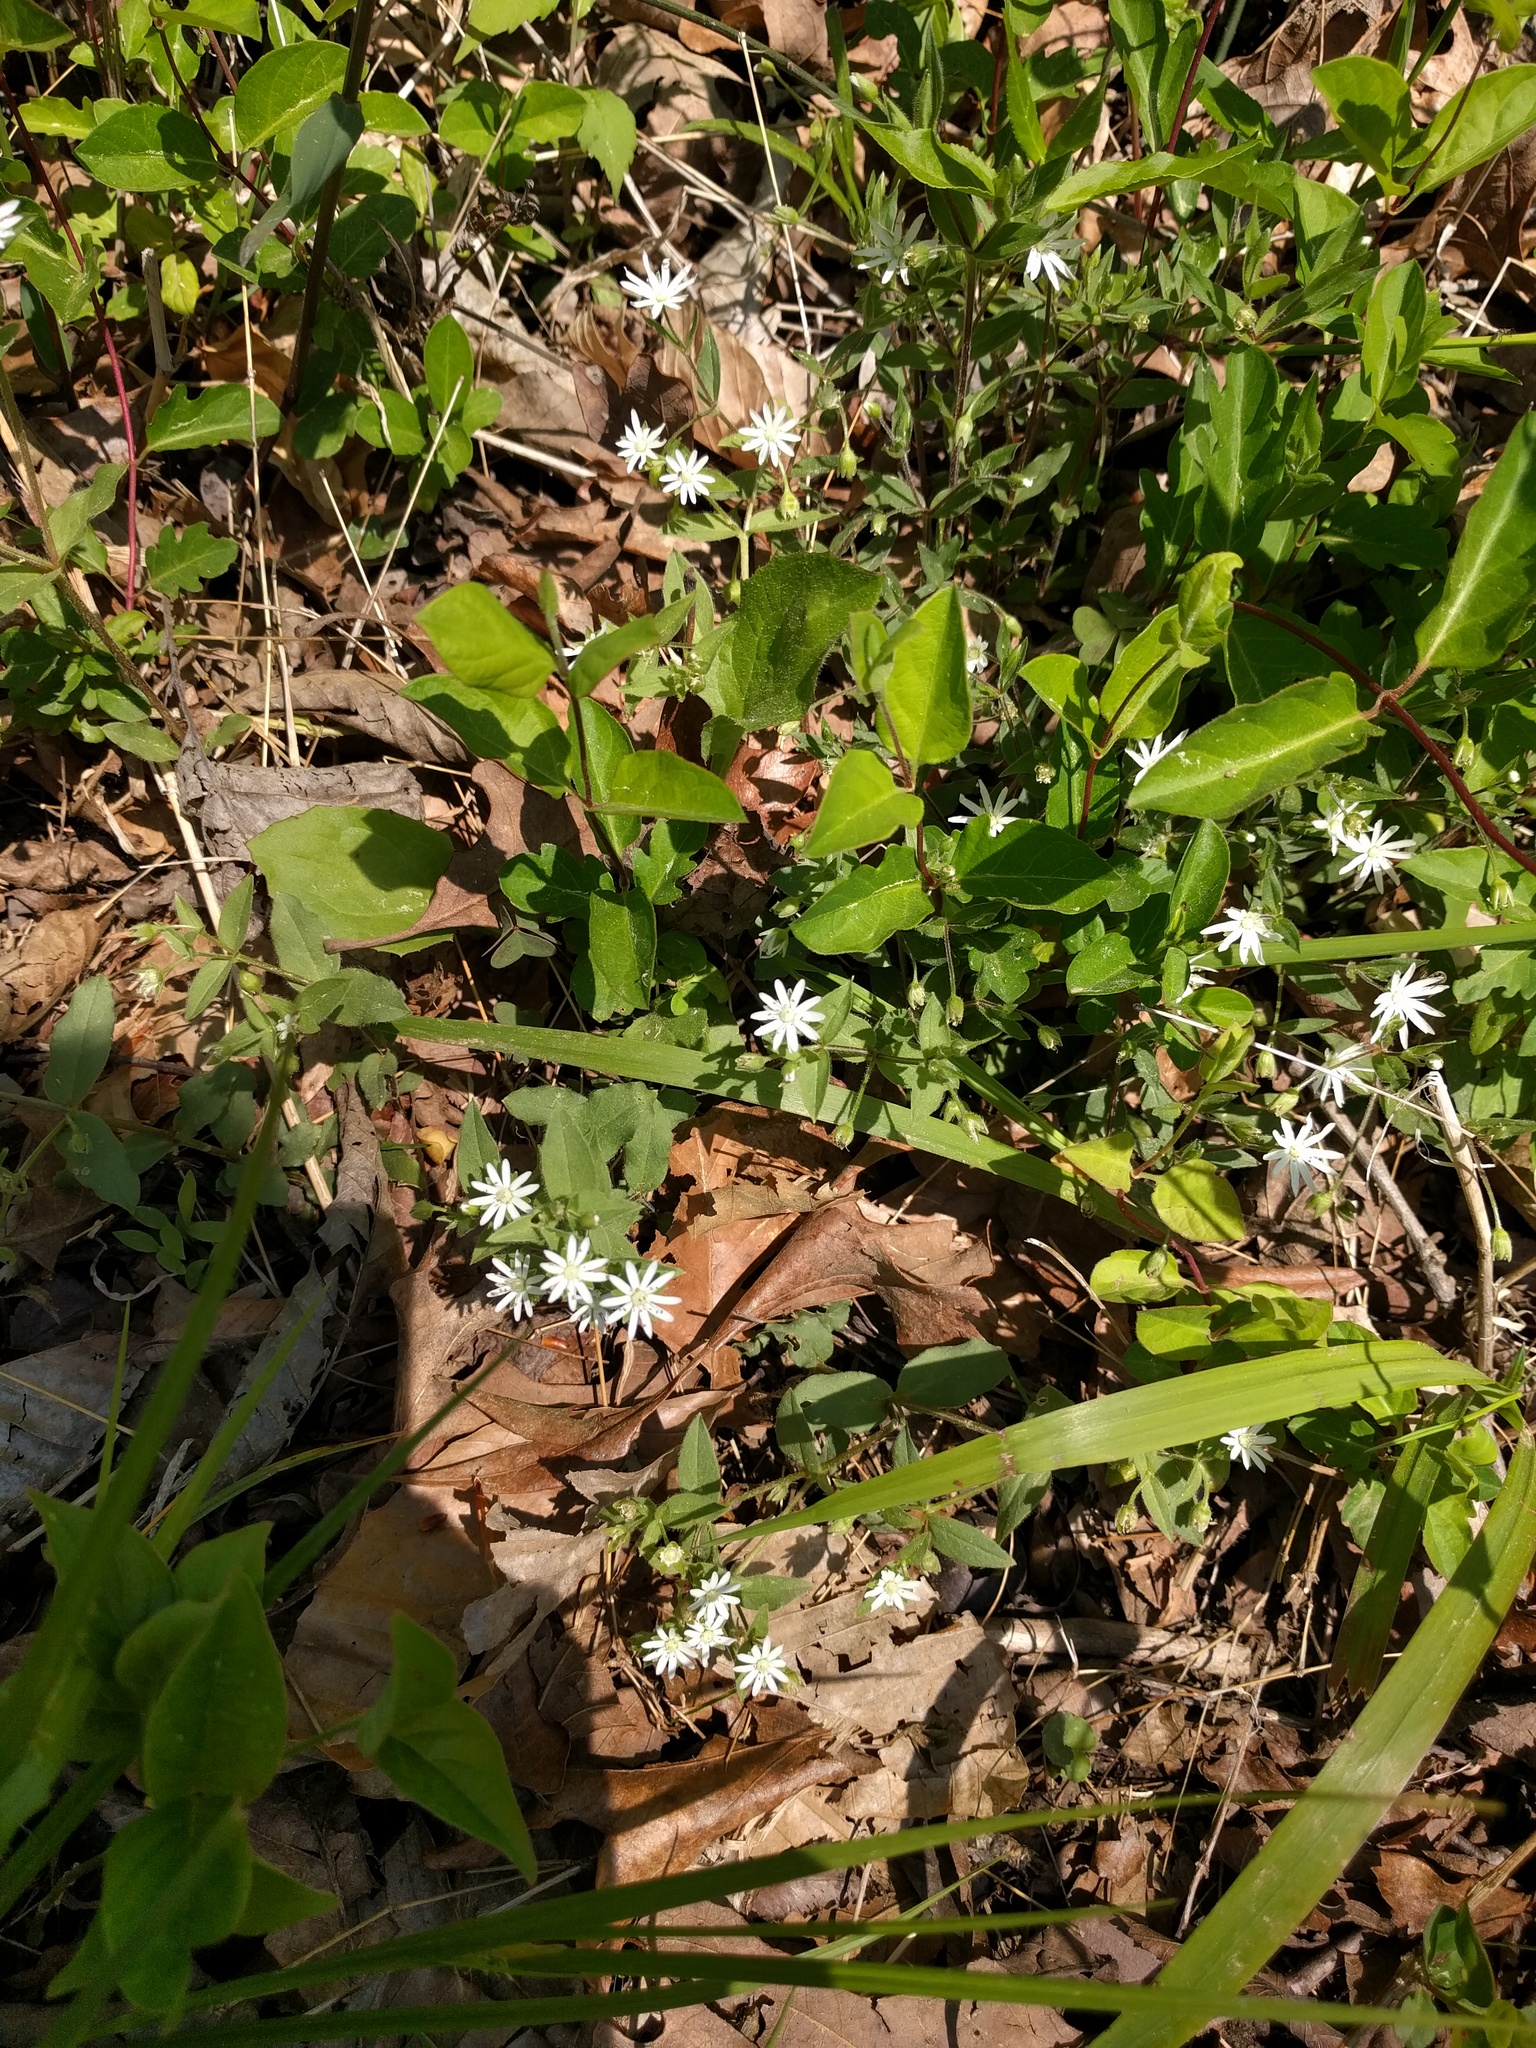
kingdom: Plantae
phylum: Tracheophyta
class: Magnoliopsida
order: Caryophyllales
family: Caryophyllaceae
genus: Stellaria
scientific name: Stellaria pubera
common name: Star chickweed
